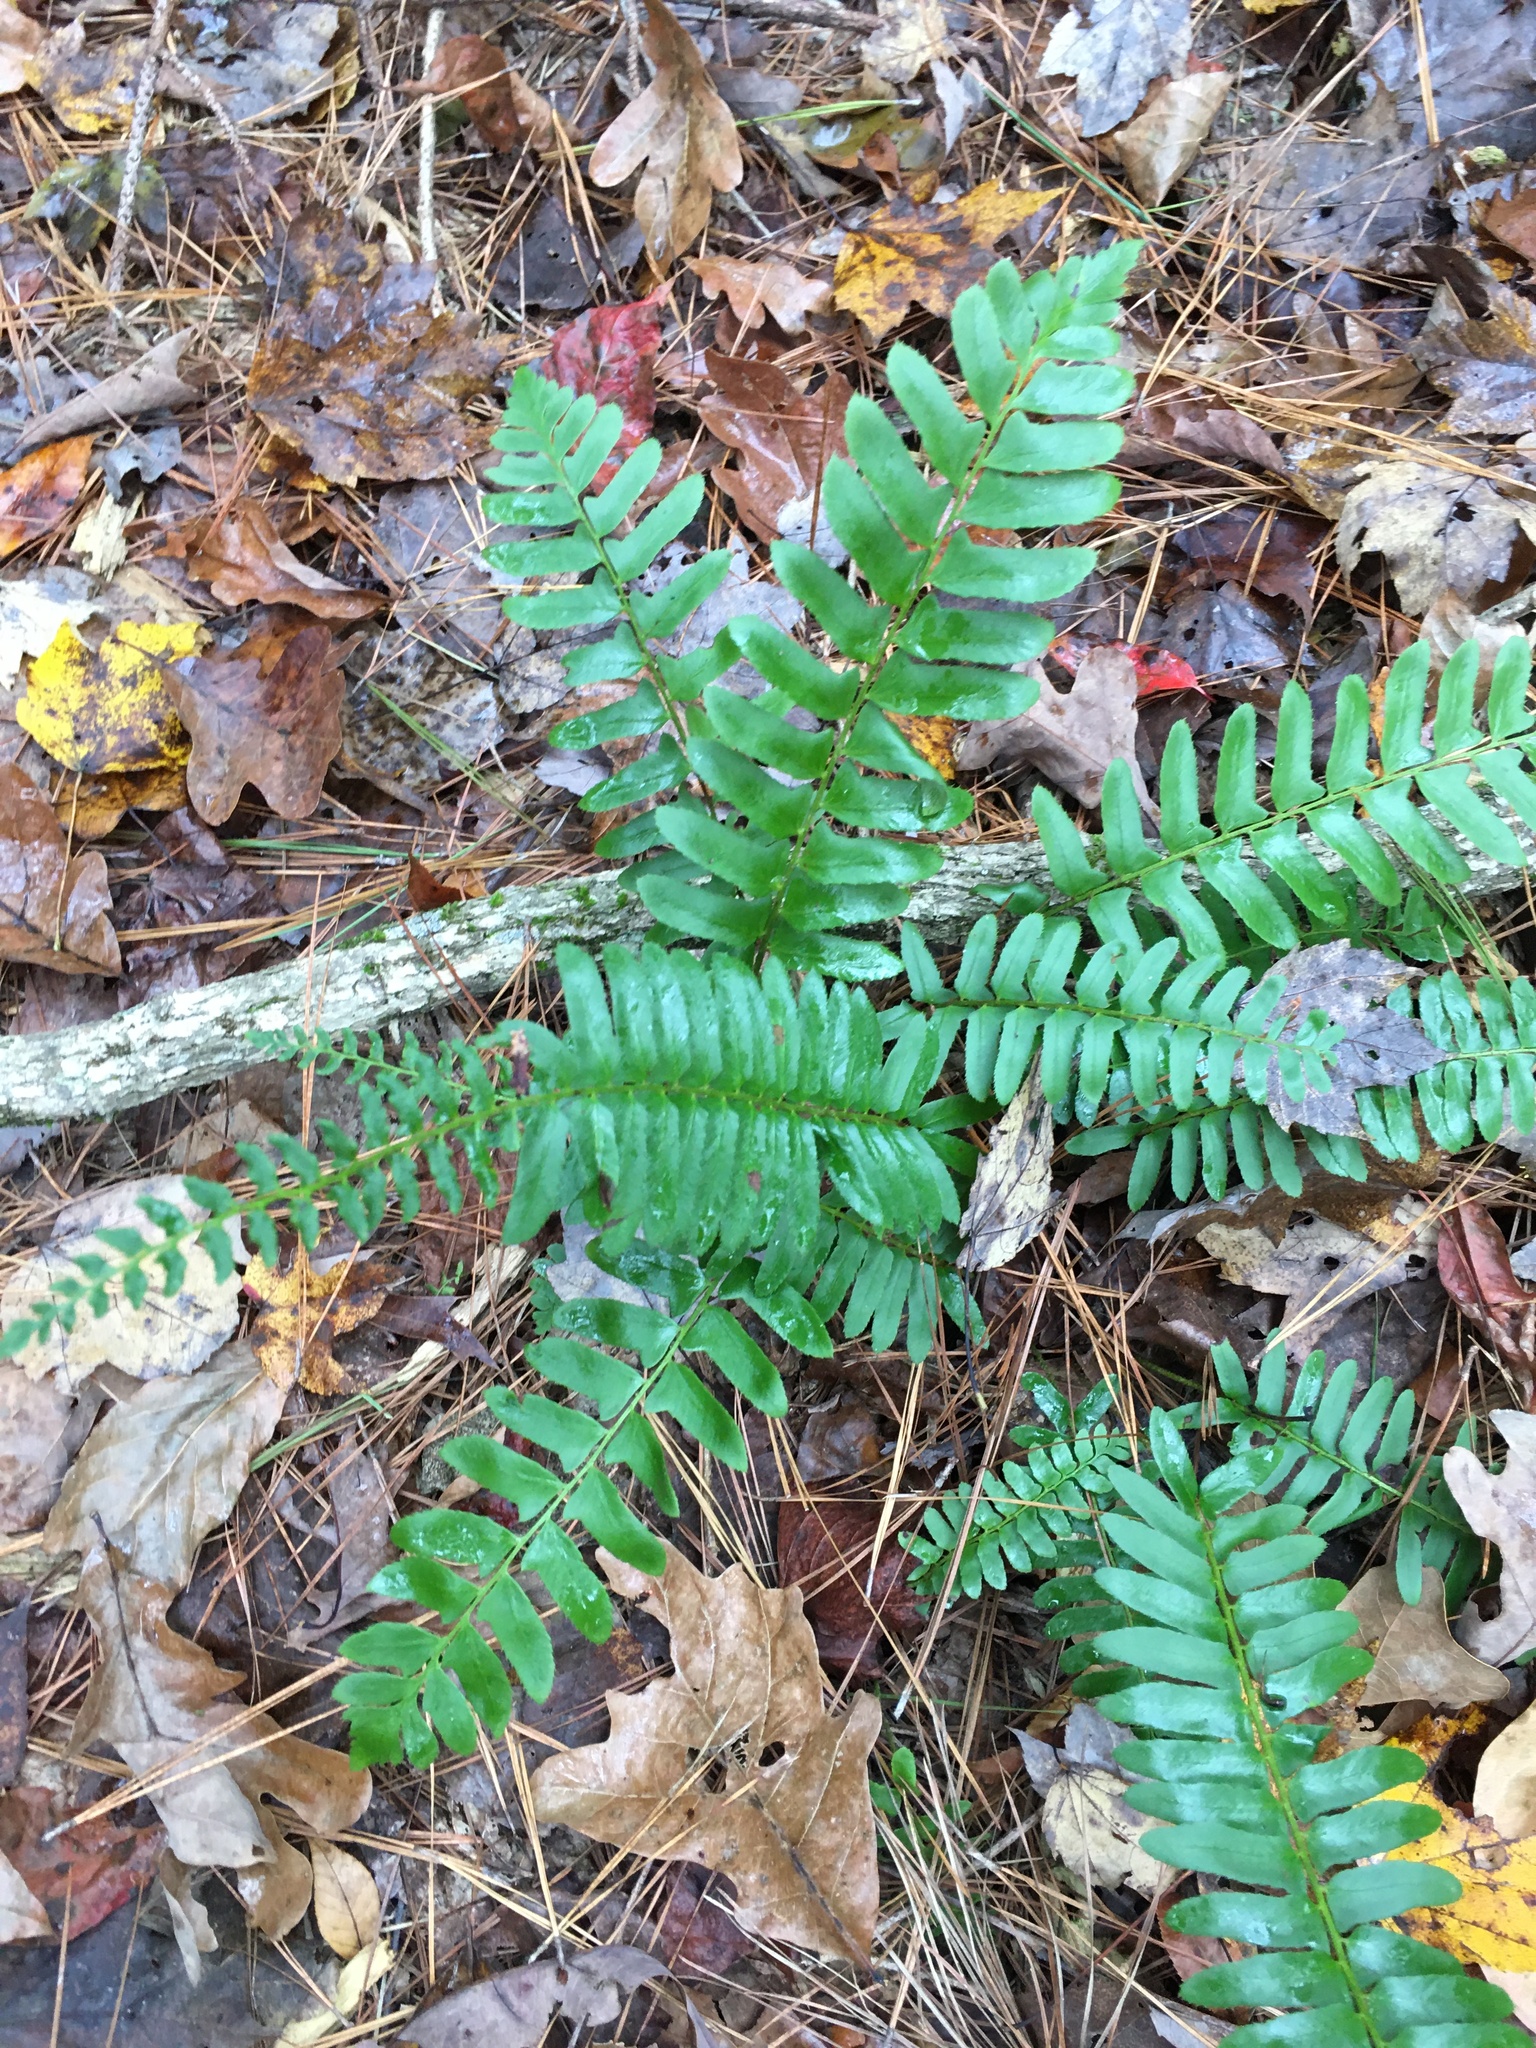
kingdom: Plantae
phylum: Tracheophyta
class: Polypodiopsida
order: Polypodiales
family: Dryopteridaceae
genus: Polystichum
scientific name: Polystichum acrostichoides
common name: Christmas fern
